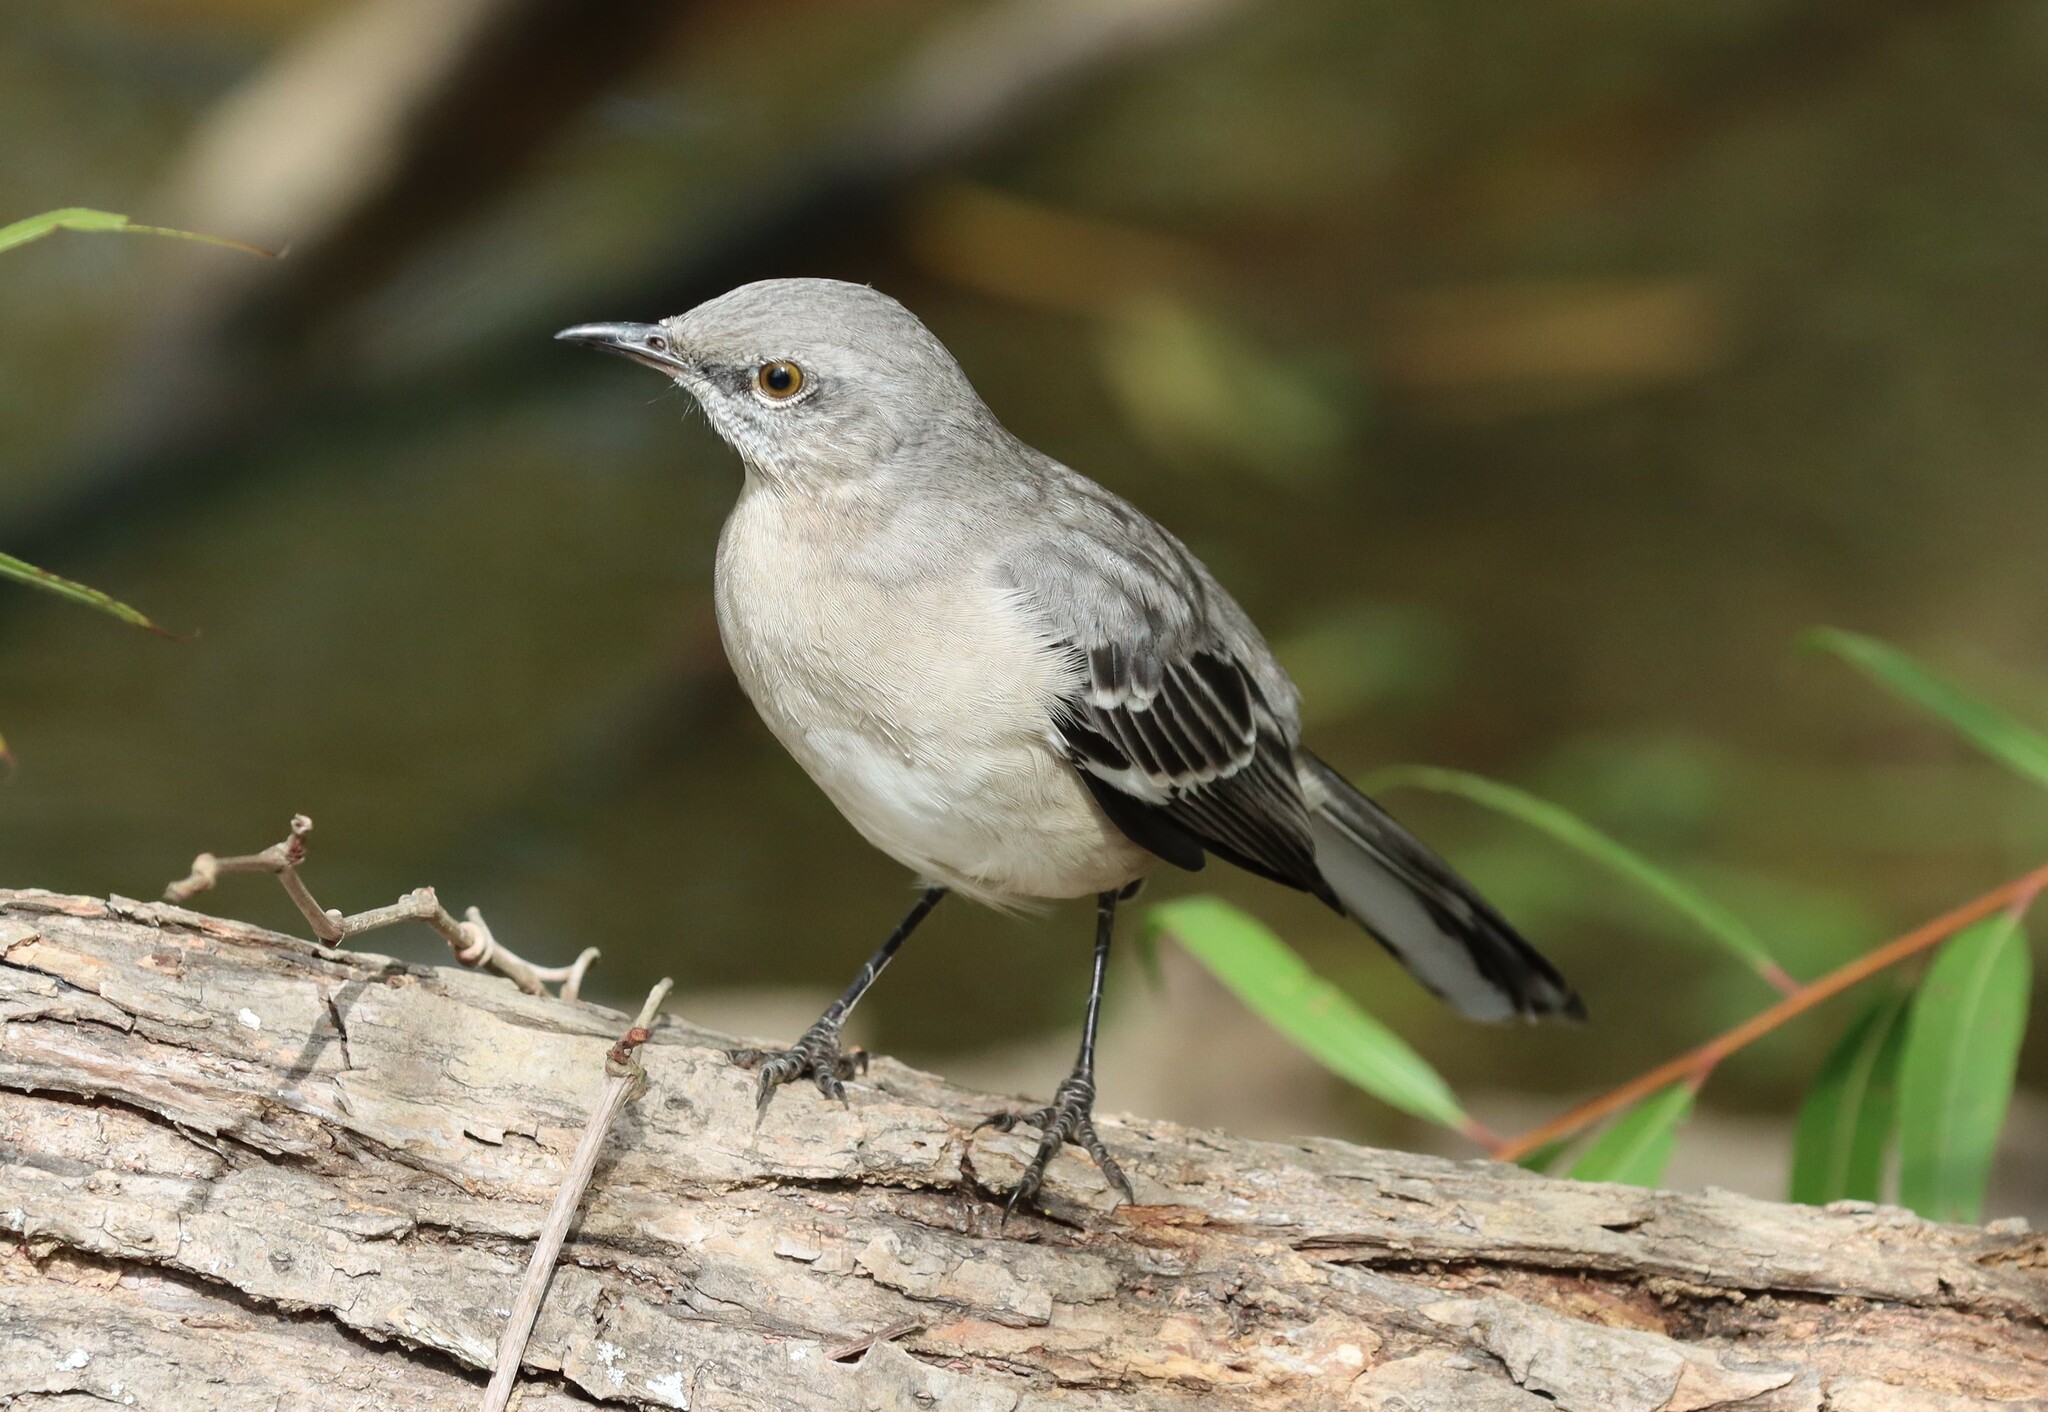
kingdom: Animalia
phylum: Chordata
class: Aves
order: Passeriformes
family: Mimidae
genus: Mimus
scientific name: Mimus polyglottos
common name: Northern mockingbird
